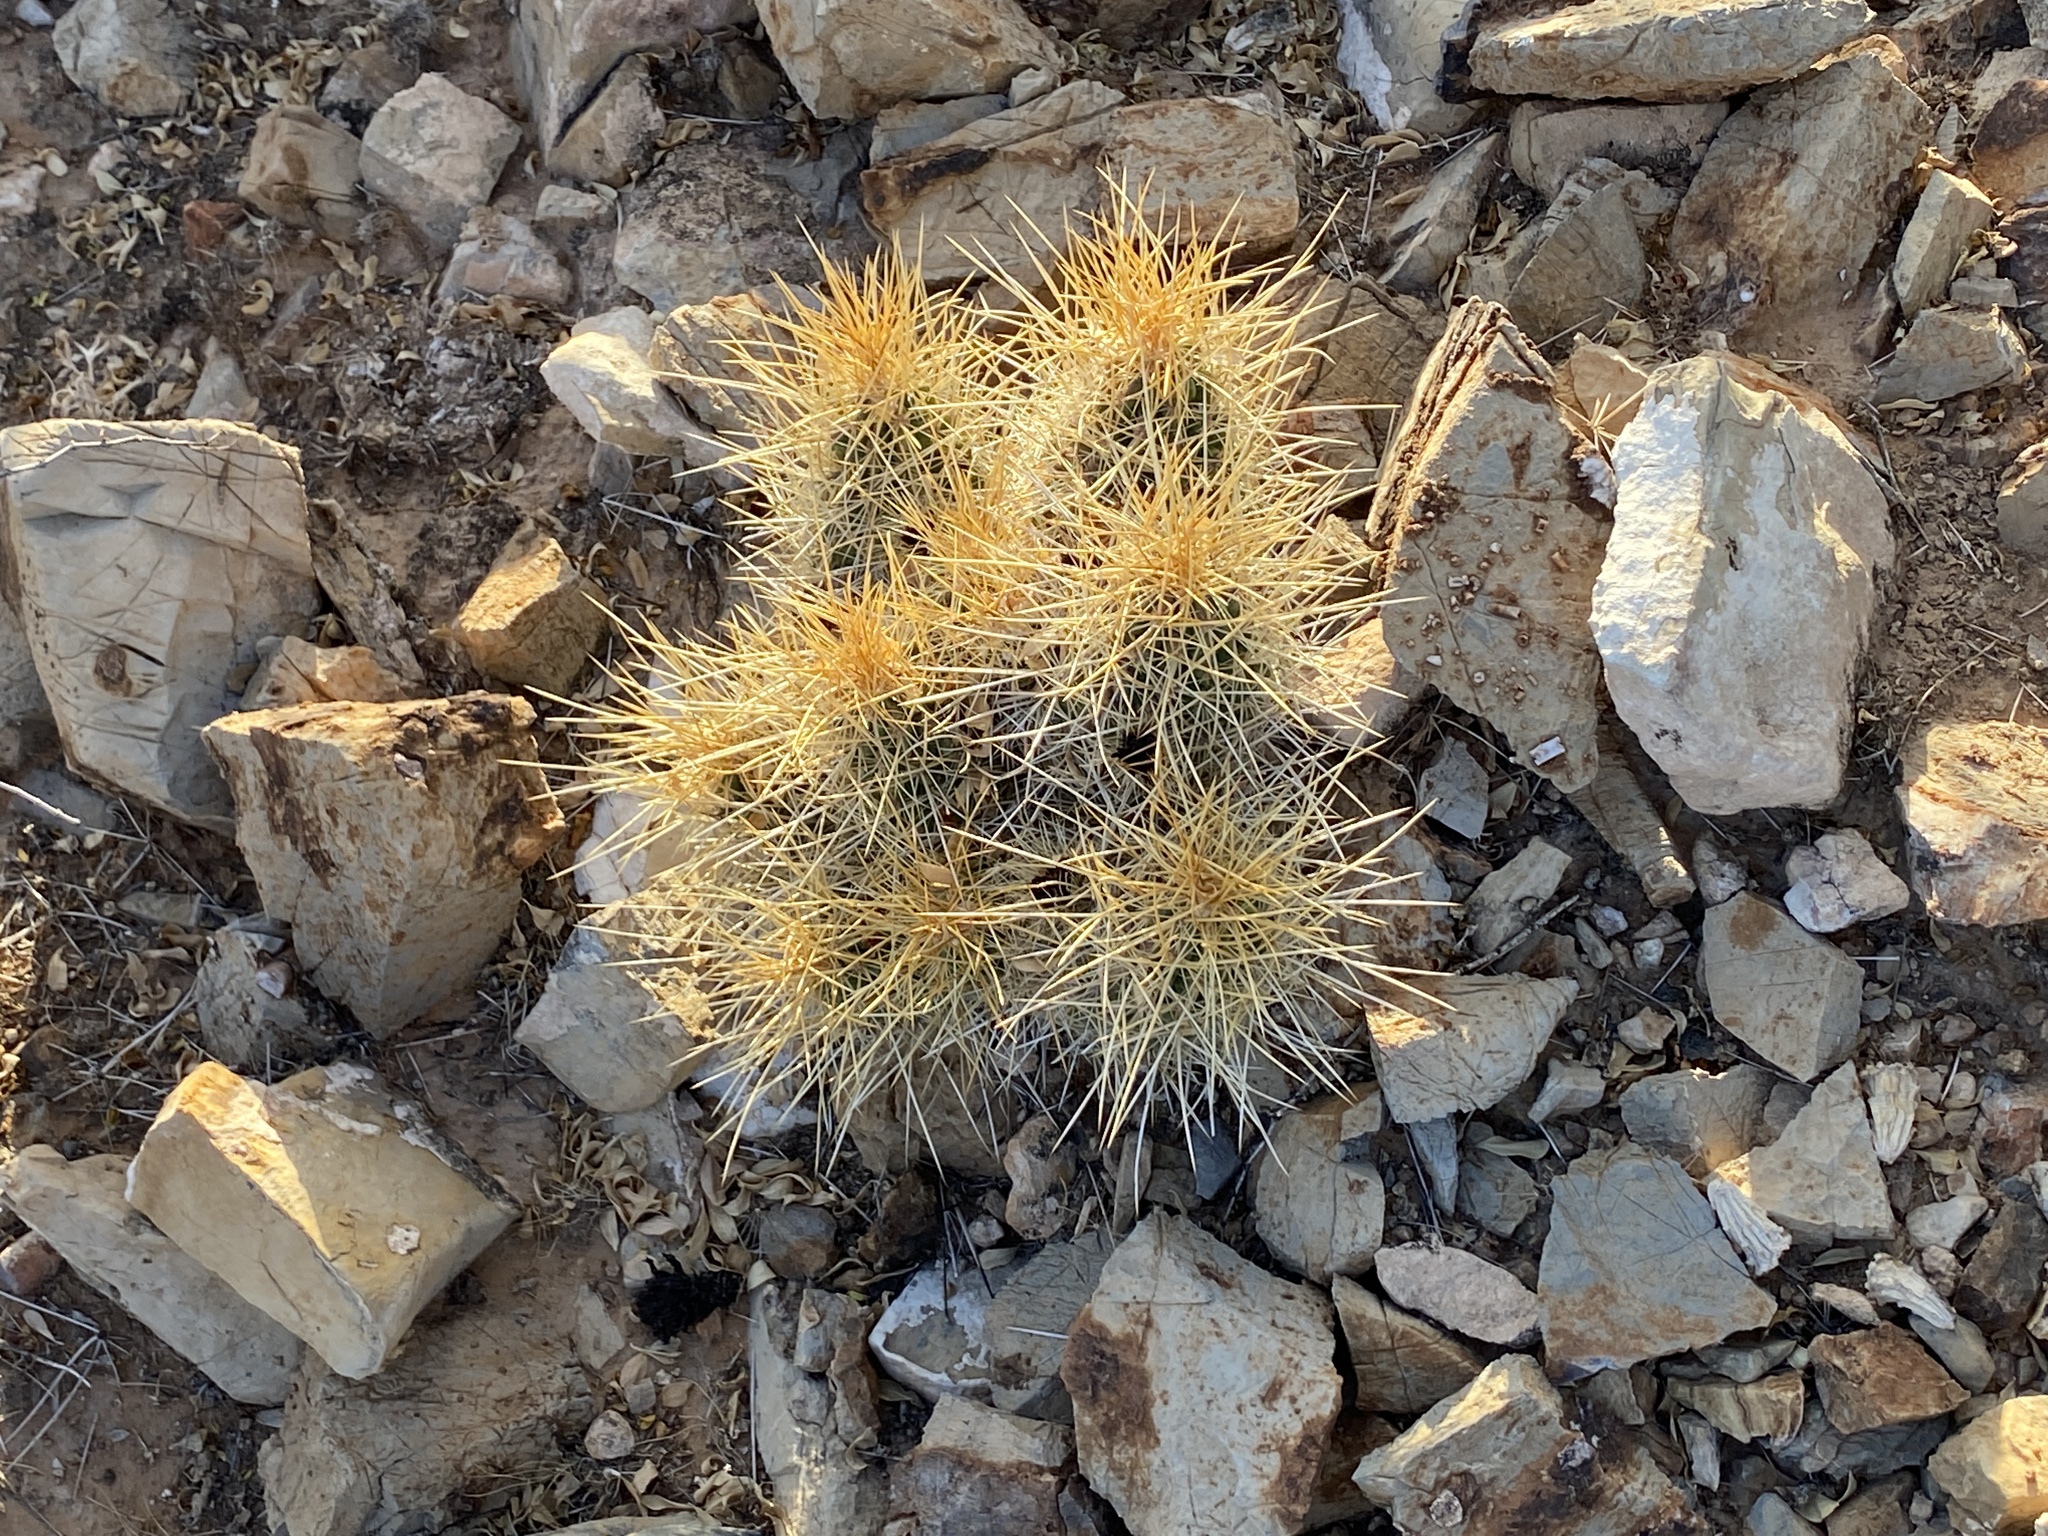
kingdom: Plantae
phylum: Tracheophyta
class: Magnoliopsida
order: Caryophyllales
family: Cactaceae
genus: Echinocereus
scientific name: Echinocereus stramineus
